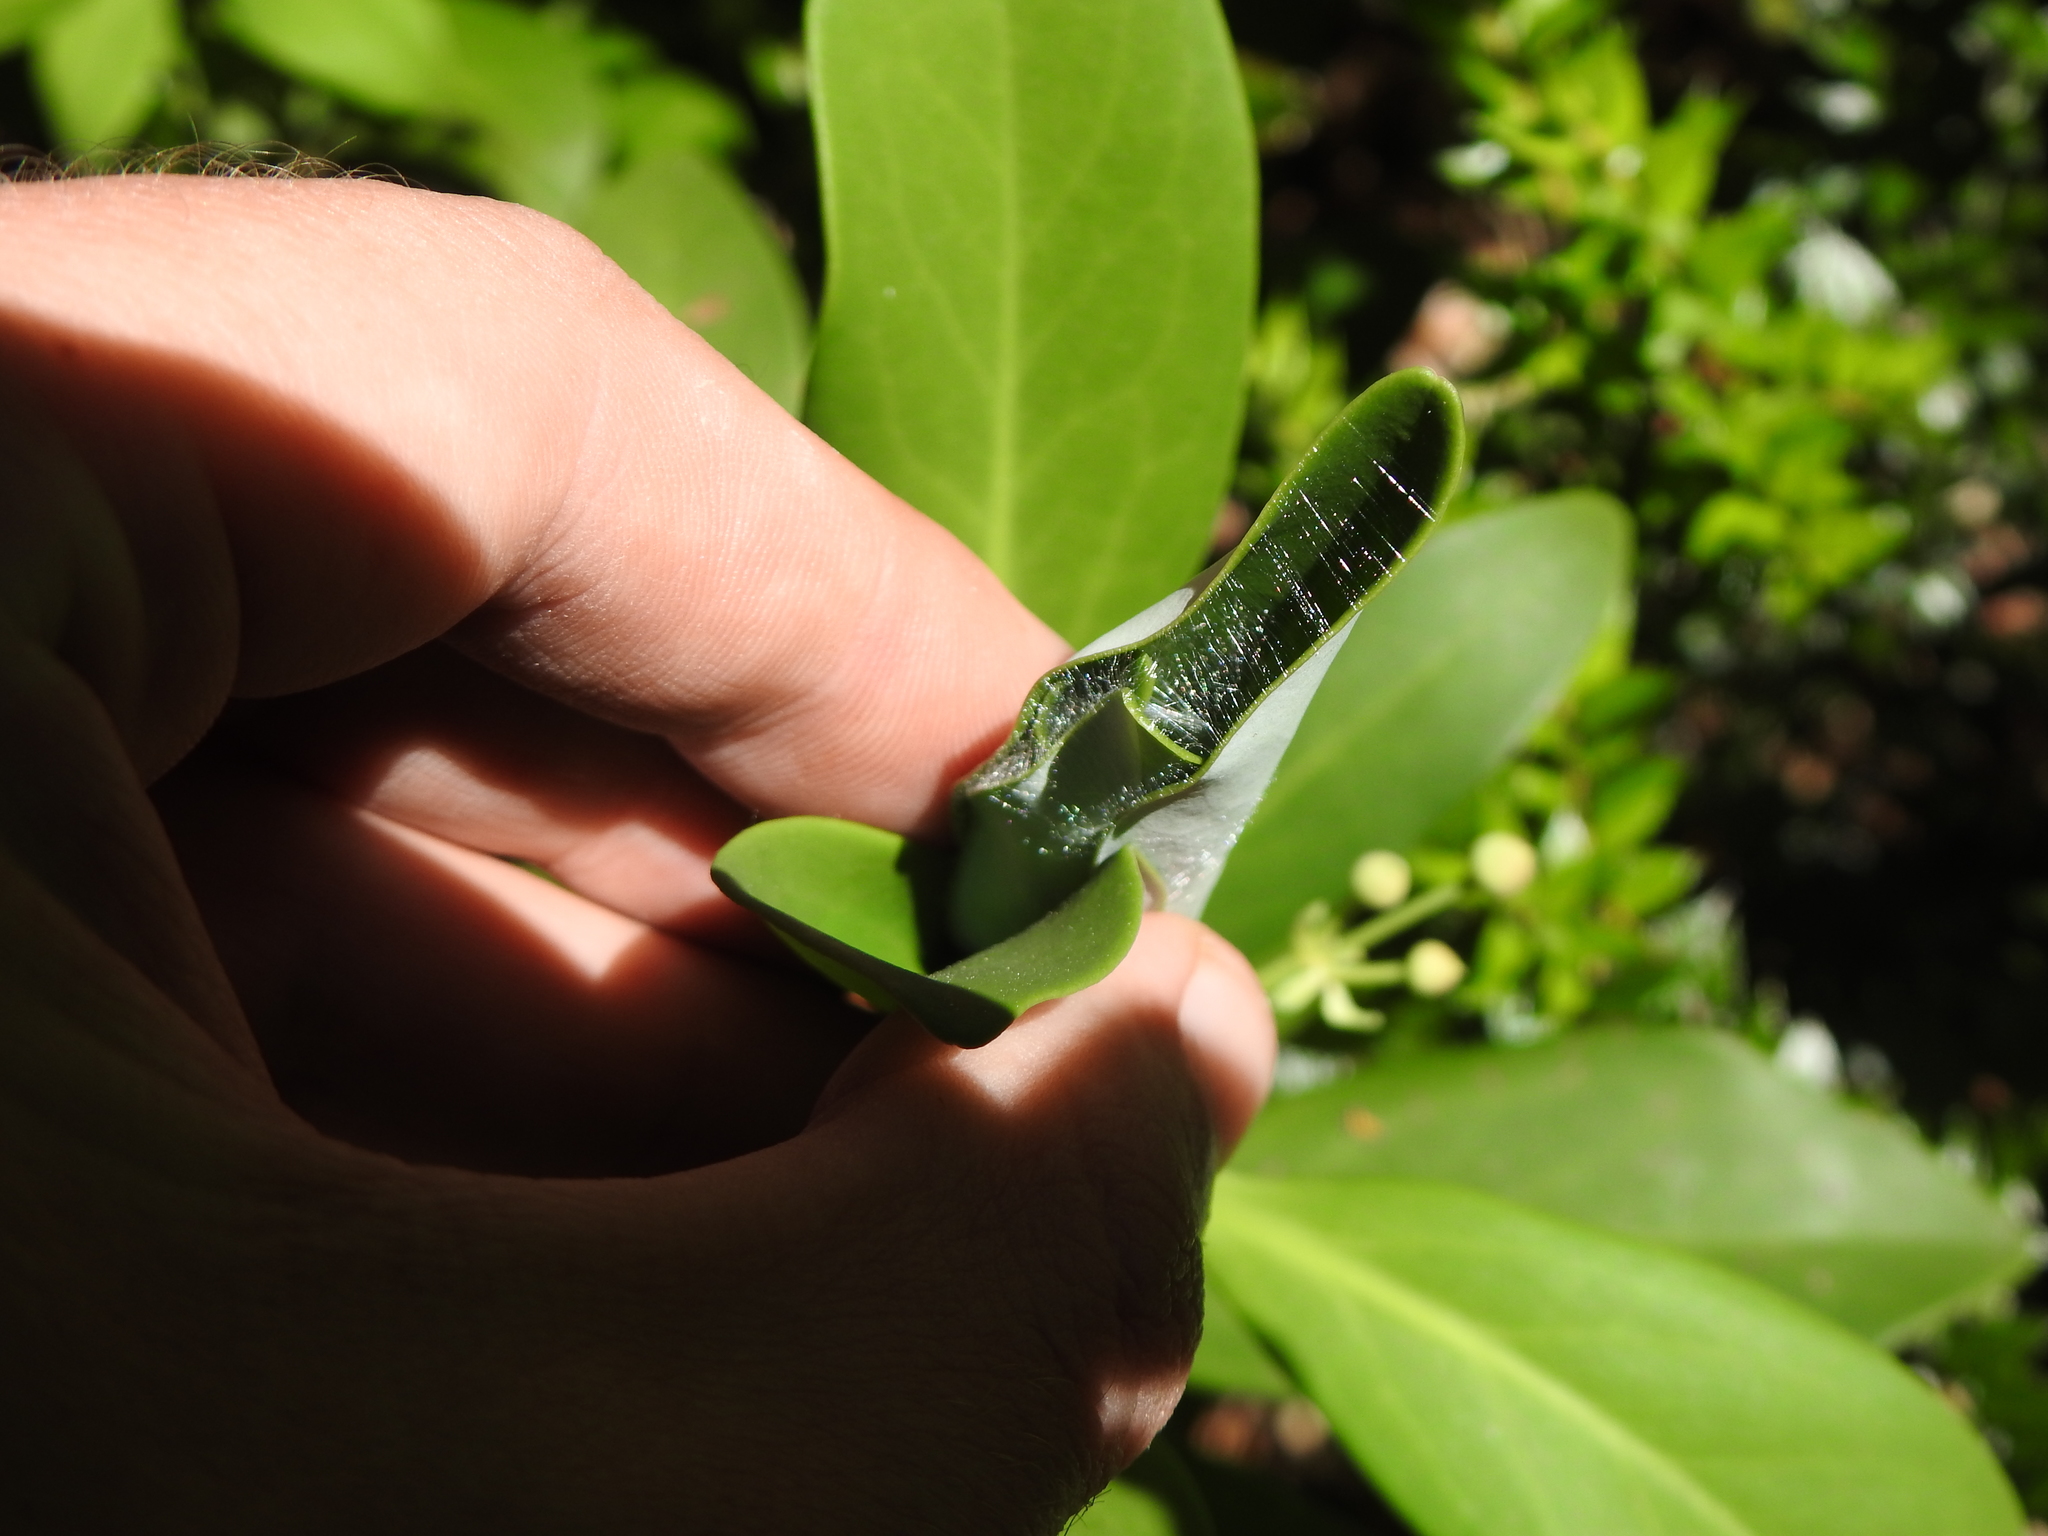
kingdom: Plantae
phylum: Tracheophyta
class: Magnoliopsida
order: Canellales
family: Winteraceae
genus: Drimys
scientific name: Drimys andina
